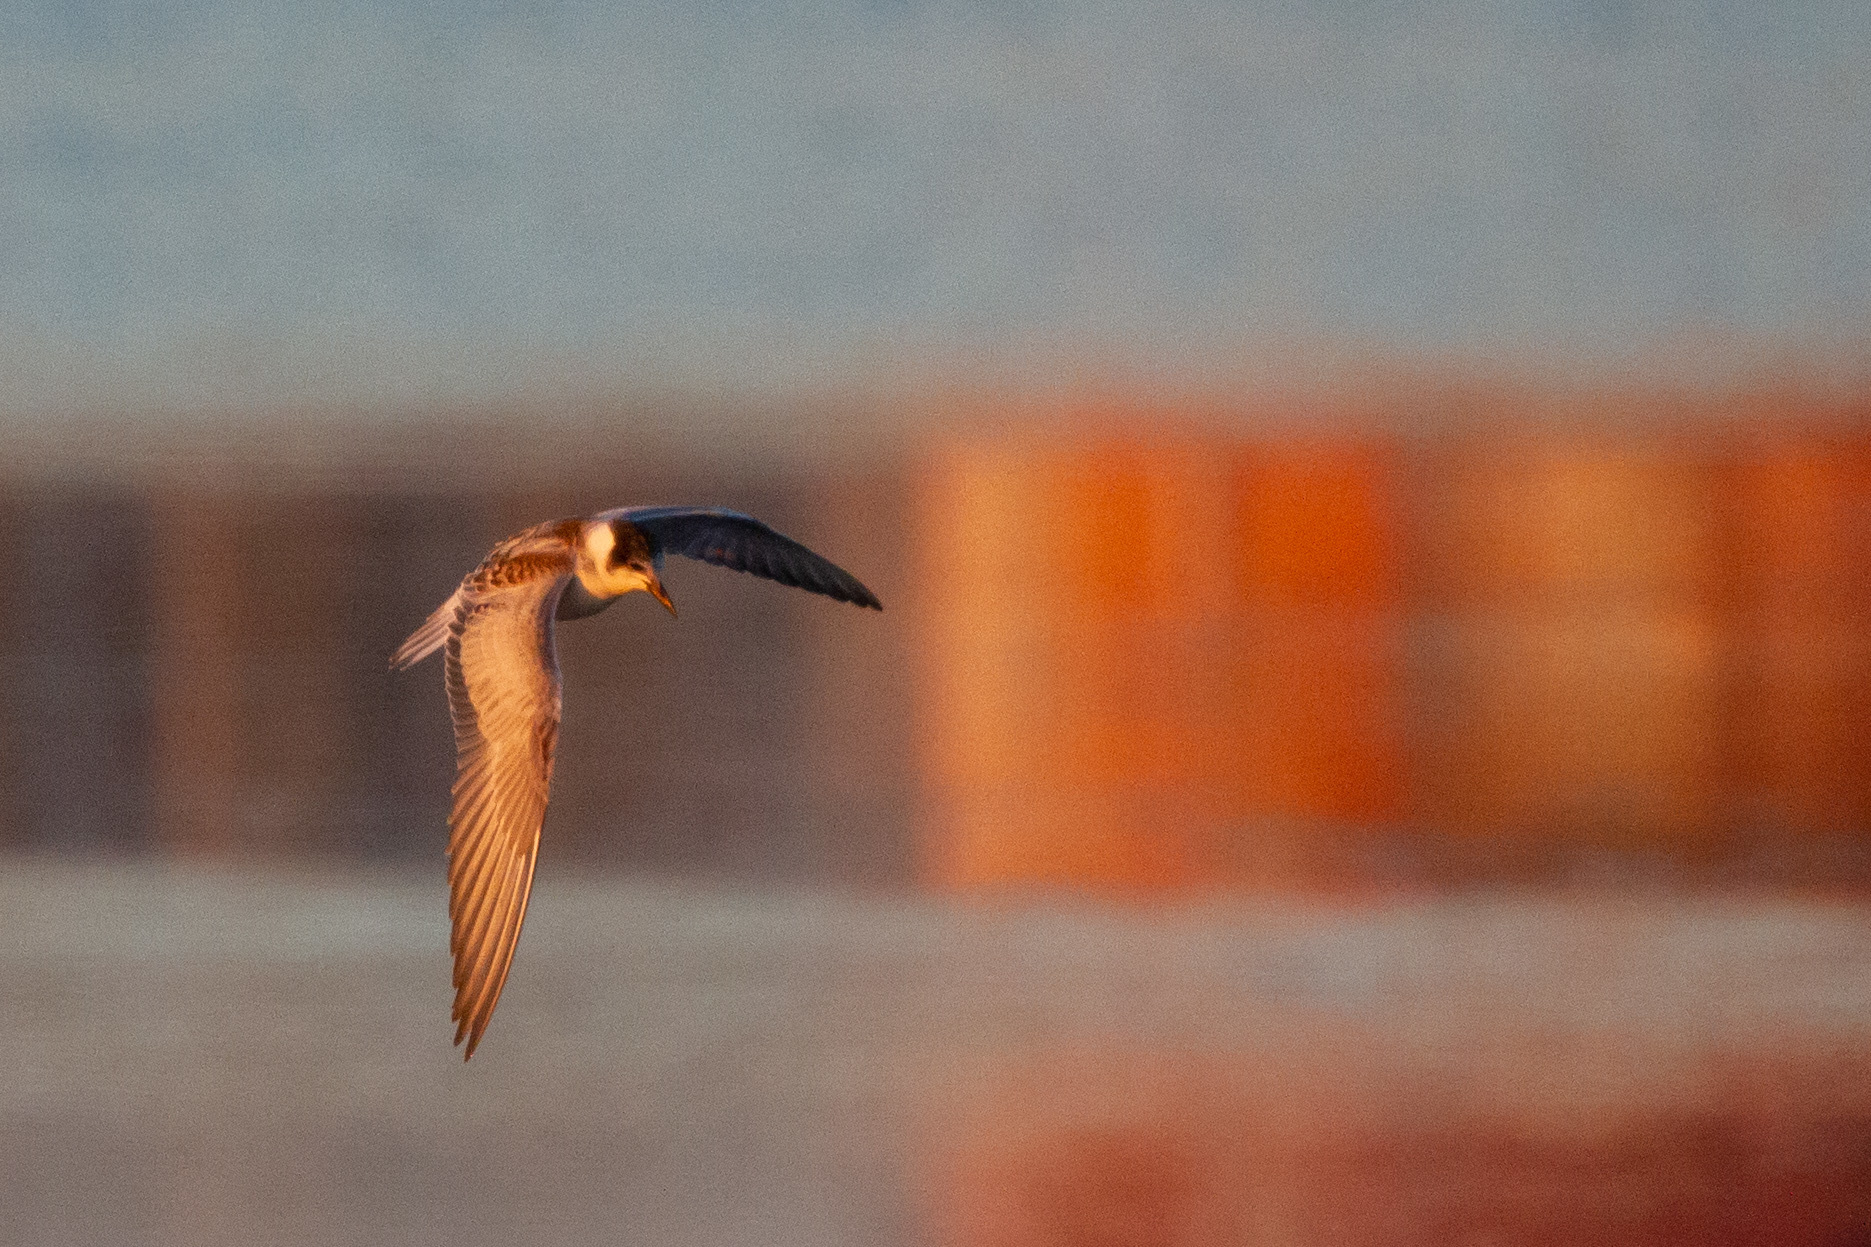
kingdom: Animalia
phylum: Chordata
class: Aves
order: Charadriiformes
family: Laridae
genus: Chlidonias
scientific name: Chlidonias hybrida
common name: Whiskered tern
